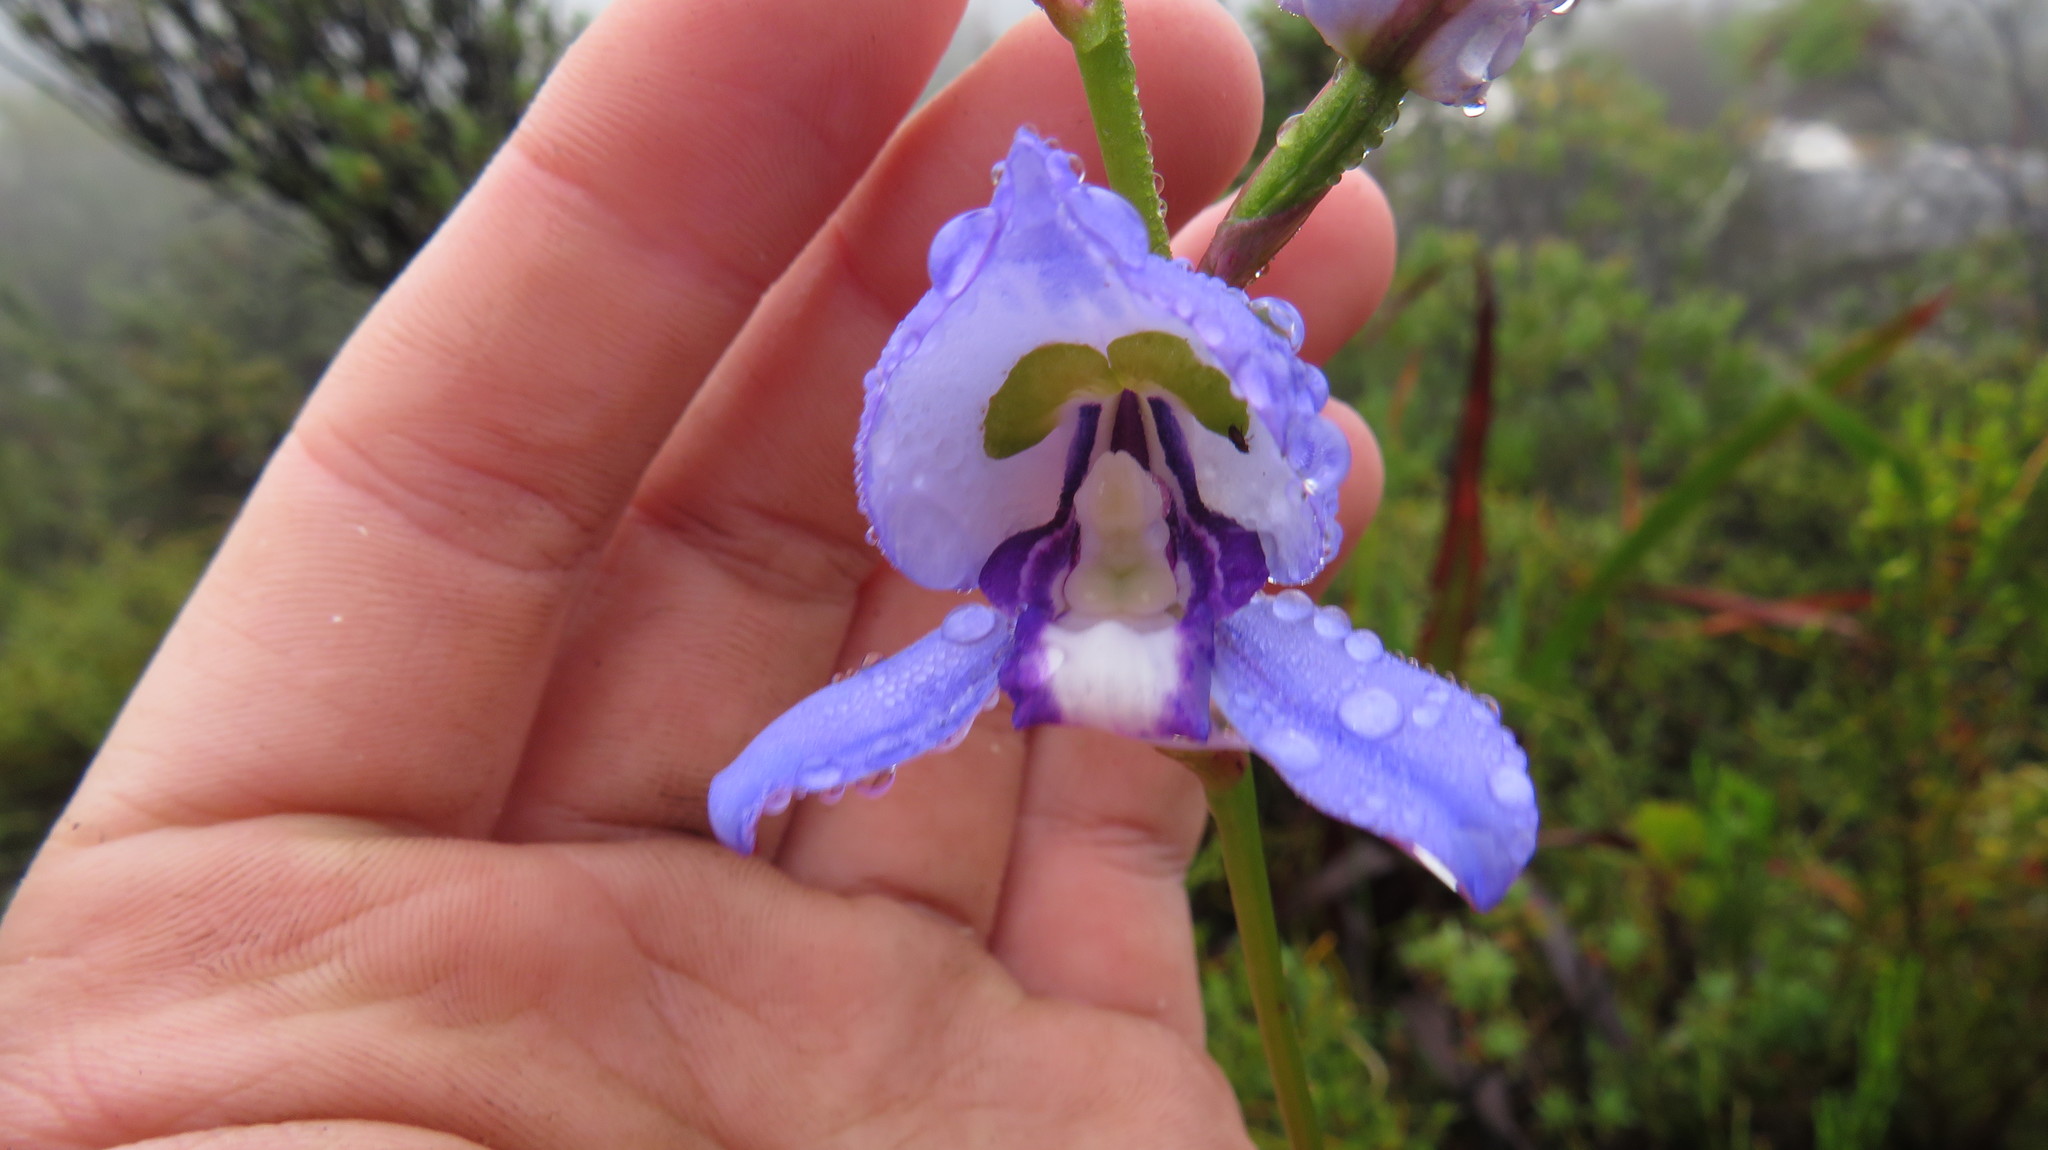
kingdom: Plantae
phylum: Tracheophyta
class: Liliopsida
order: Asparagales
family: Orchidaceae
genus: Disa
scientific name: Disa graminifolia
